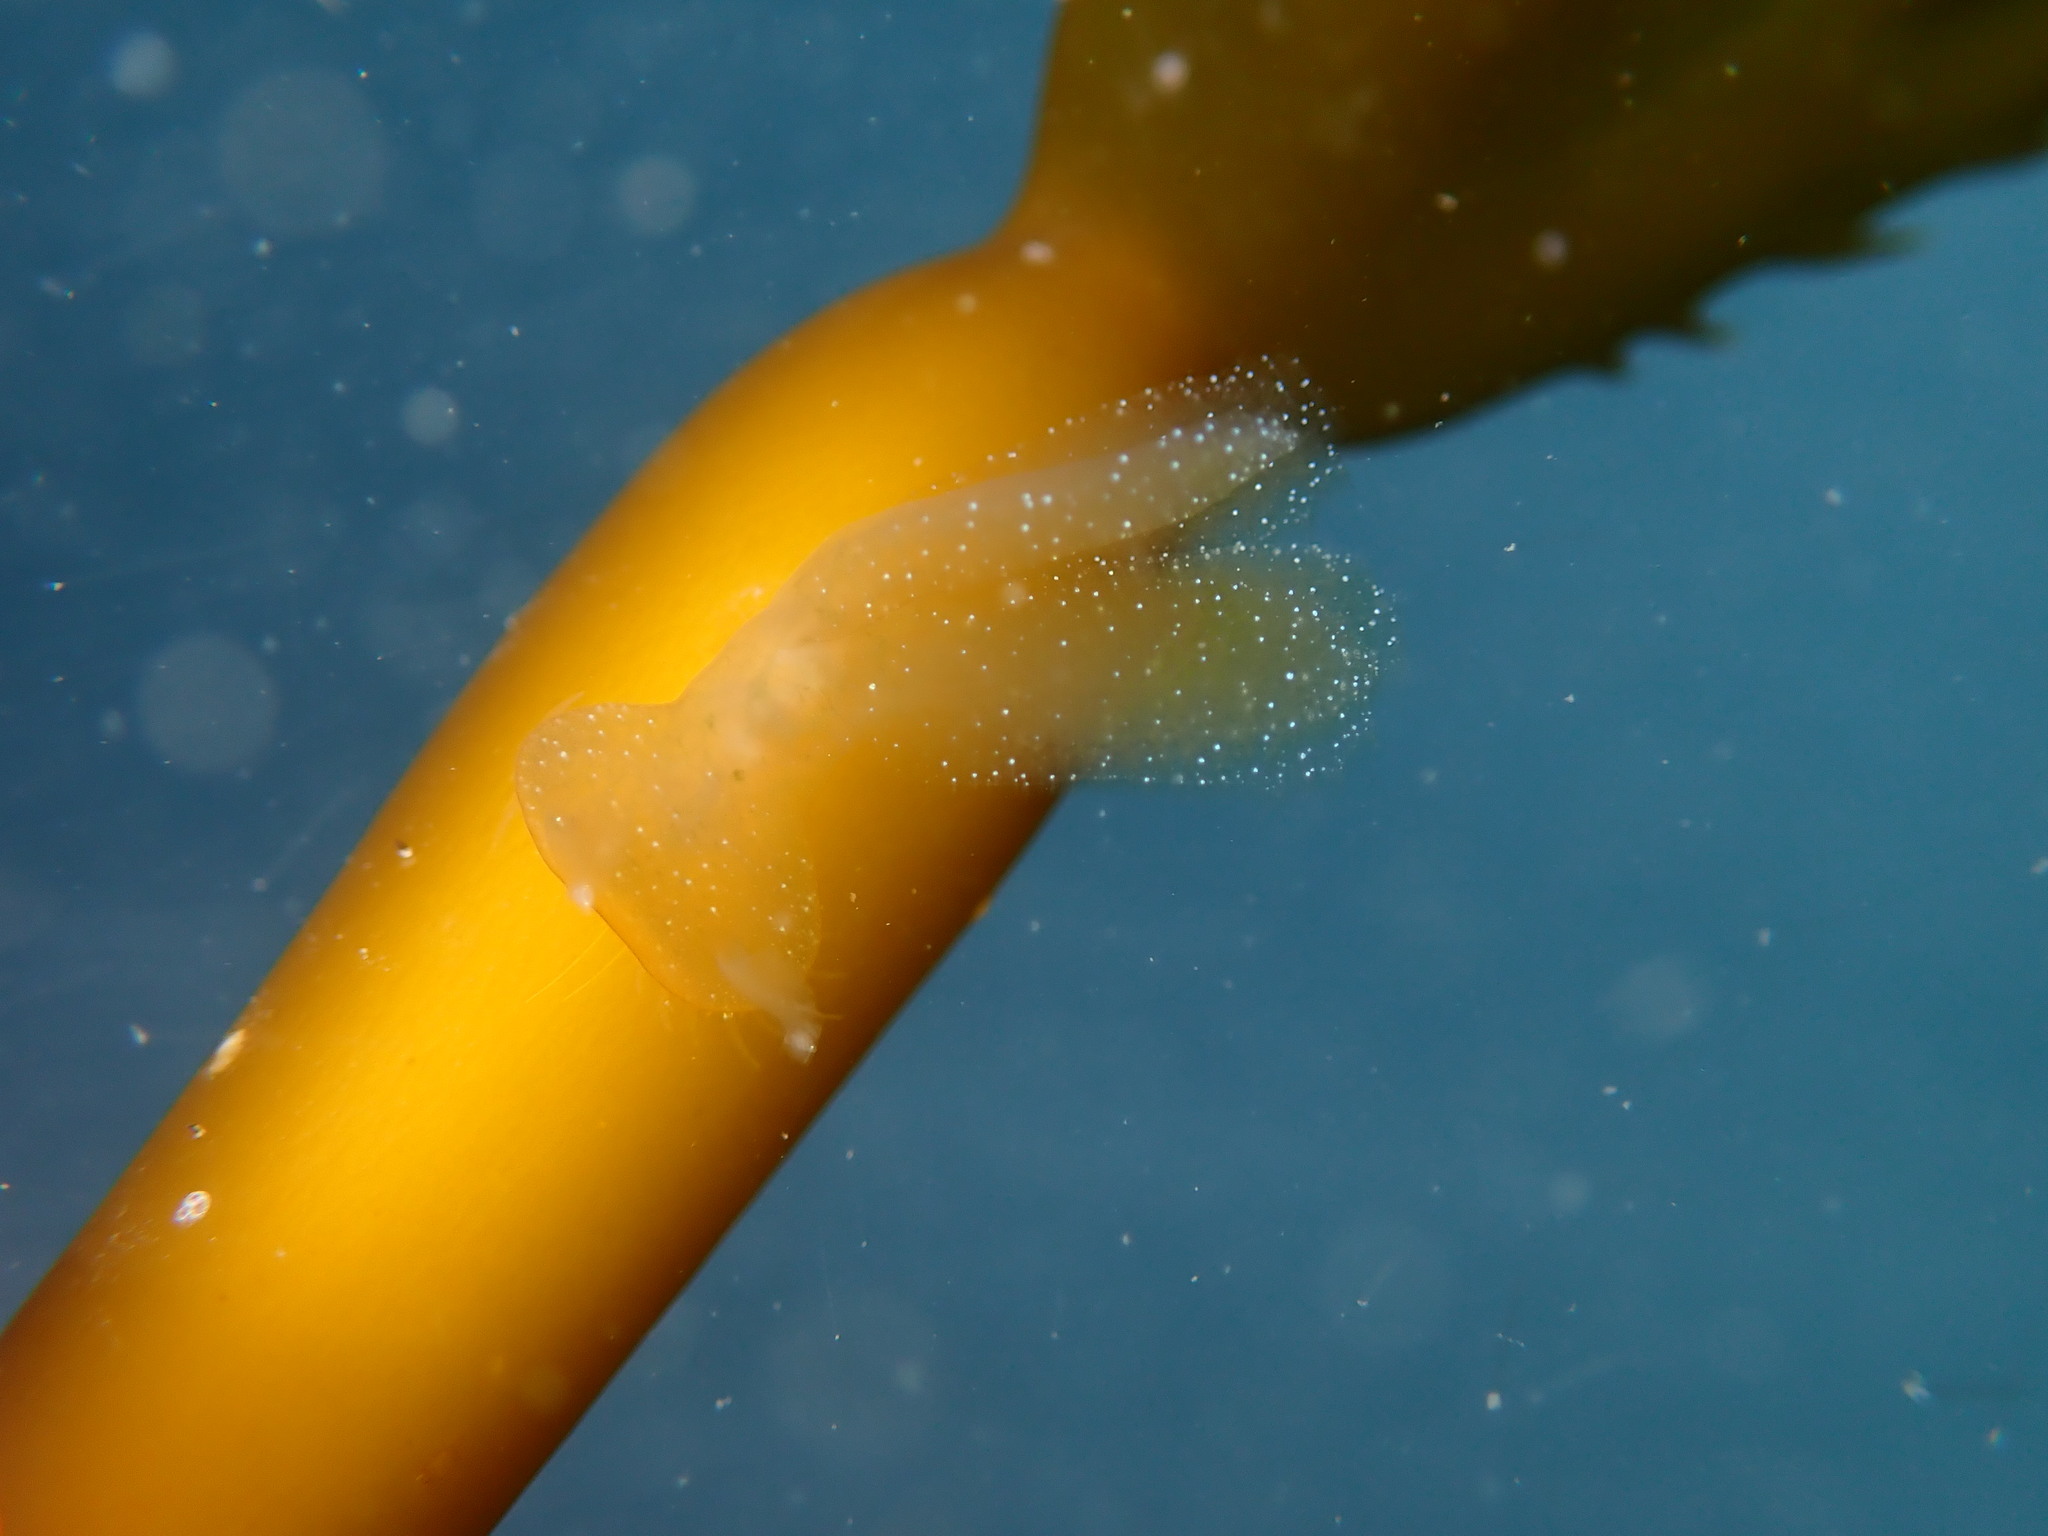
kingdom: Animalia
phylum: Mollusca
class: Gastropoda
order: Nudibranchia
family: Tethydidae
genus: Melibe
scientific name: Melibe leonina
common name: Lion nudibranch
